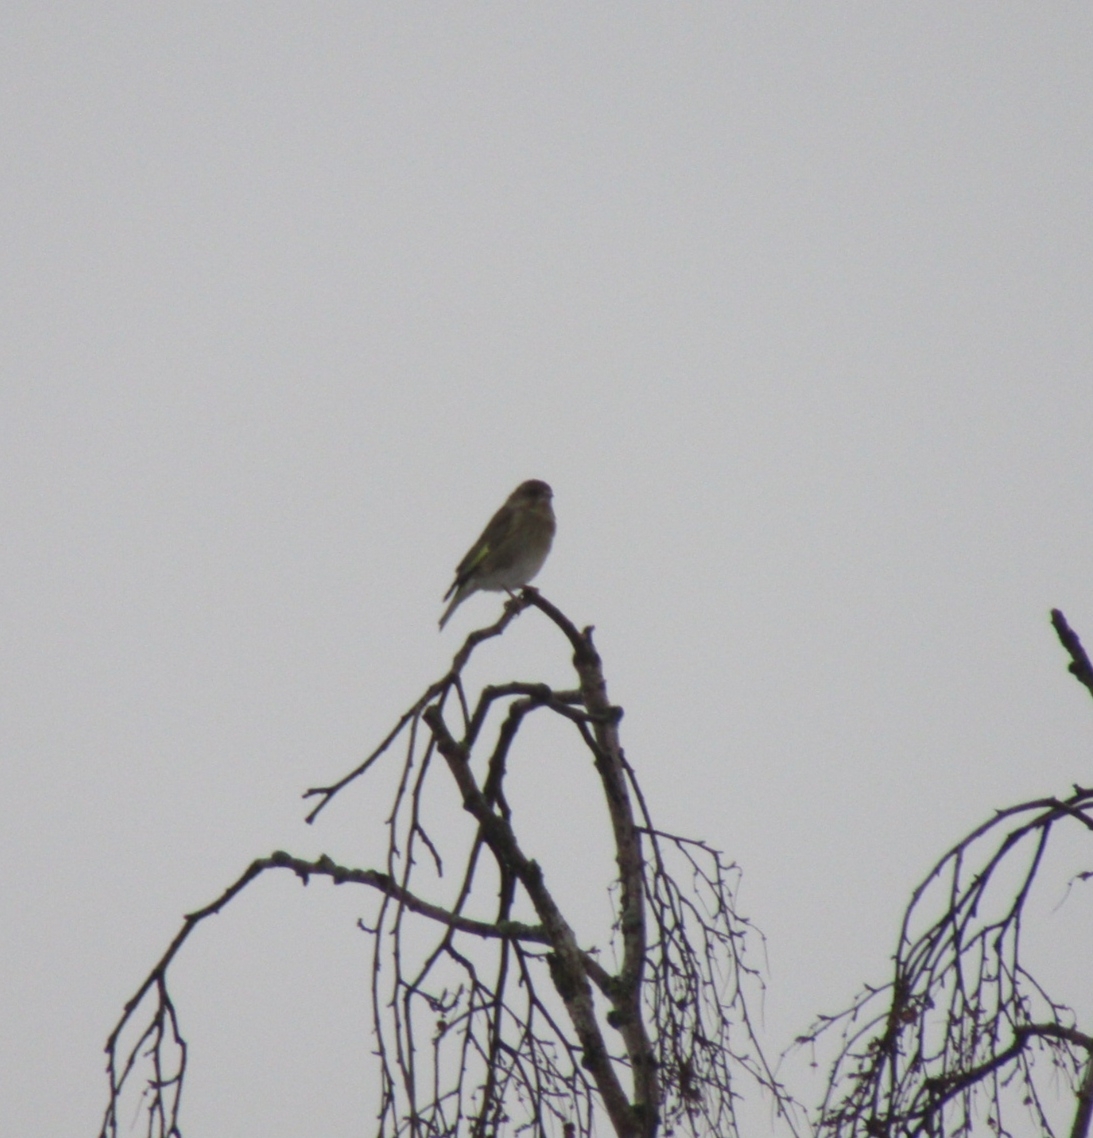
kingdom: Plantae
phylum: Tracheophyta
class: Liliopsida
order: Poales
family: Poaceae
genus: Chloris
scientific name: Chloris chloris
